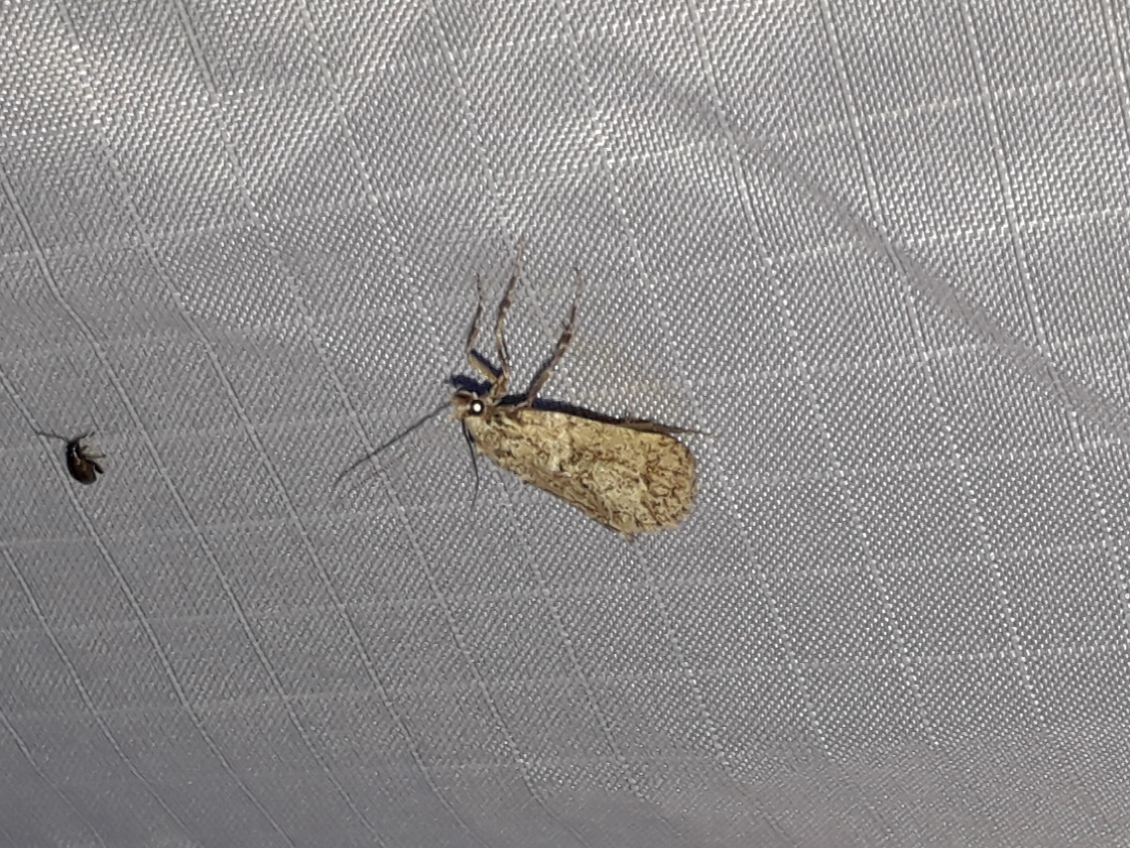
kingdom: Animalia
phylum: Arthropoda
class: Insecta
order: Lepidoptera
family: Lypusidae
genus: Diurnea
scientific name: Diurnea fagella
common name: March tubic
